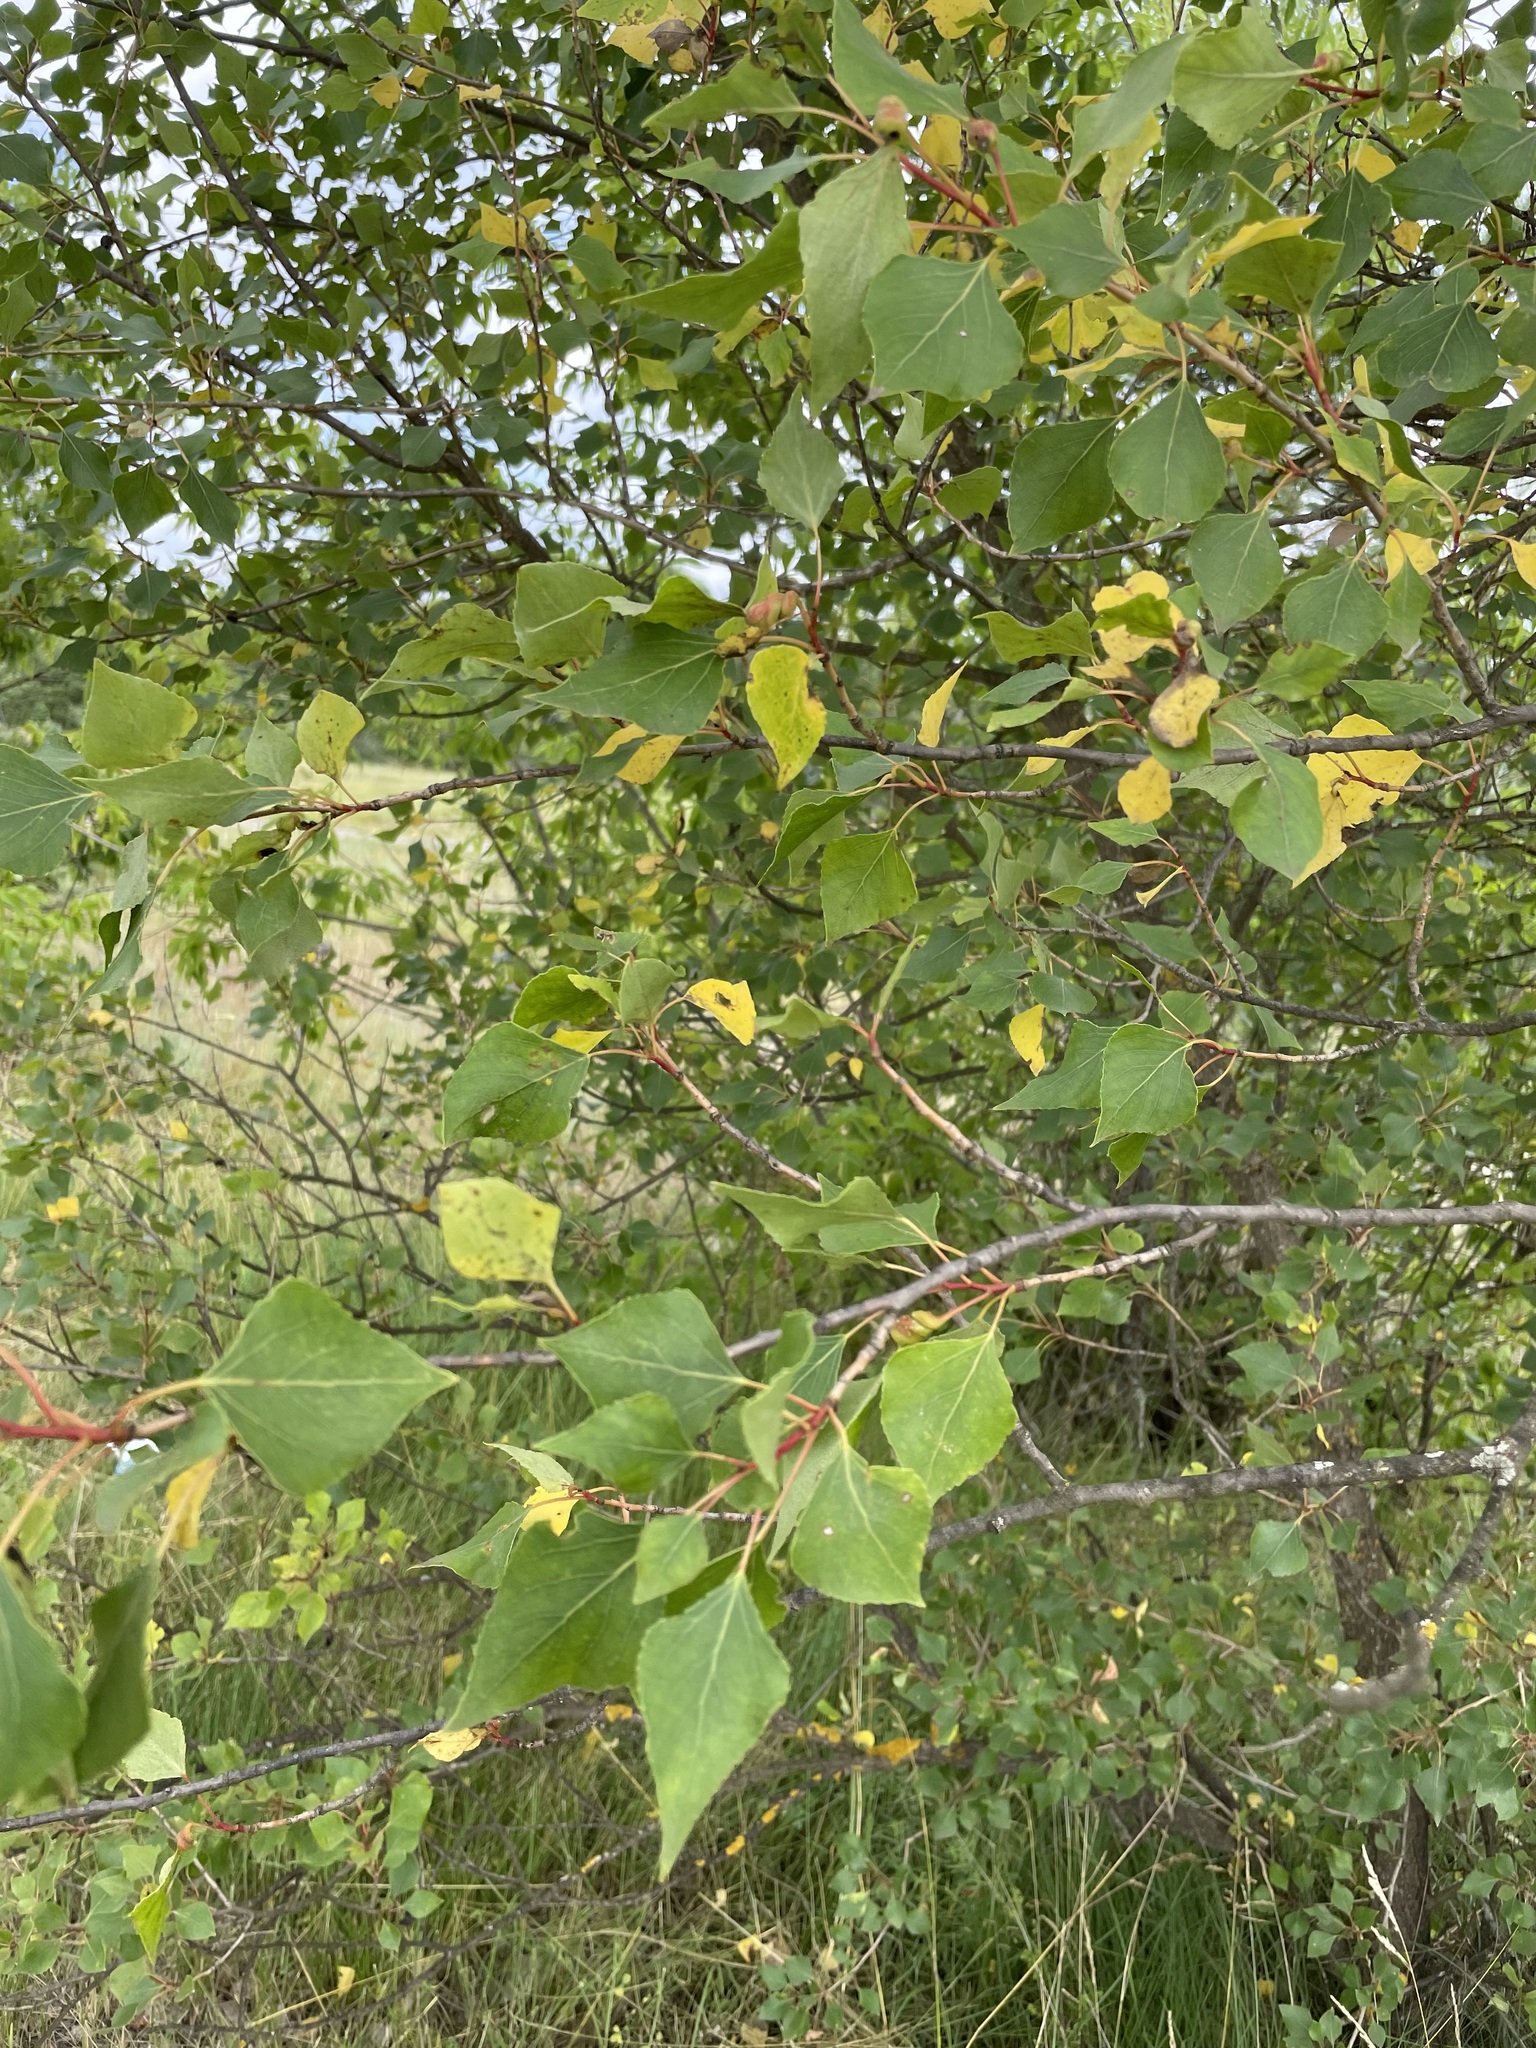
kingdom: Plantae
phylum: Tracheophyta
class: Magnoliopsida
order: Malpighiales
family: Salicaceae
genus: Populus
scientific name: Populus nigra
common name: Black poplar
